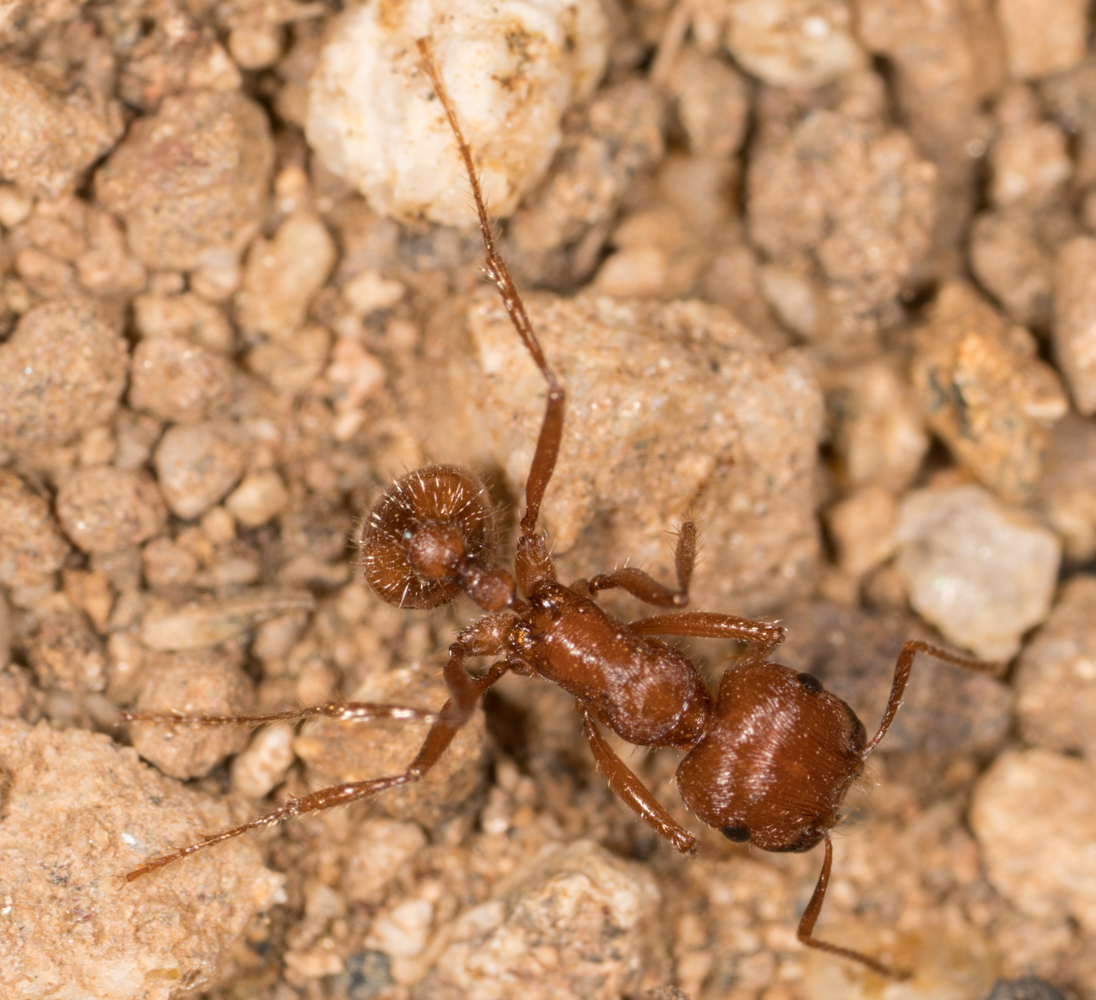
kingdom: Animalia
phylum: Arthropoda
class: Insecta
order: Hymenoptera
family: Formicidae
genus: Pogonomyrmex
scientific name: Pogonomyrmex subnitidus
